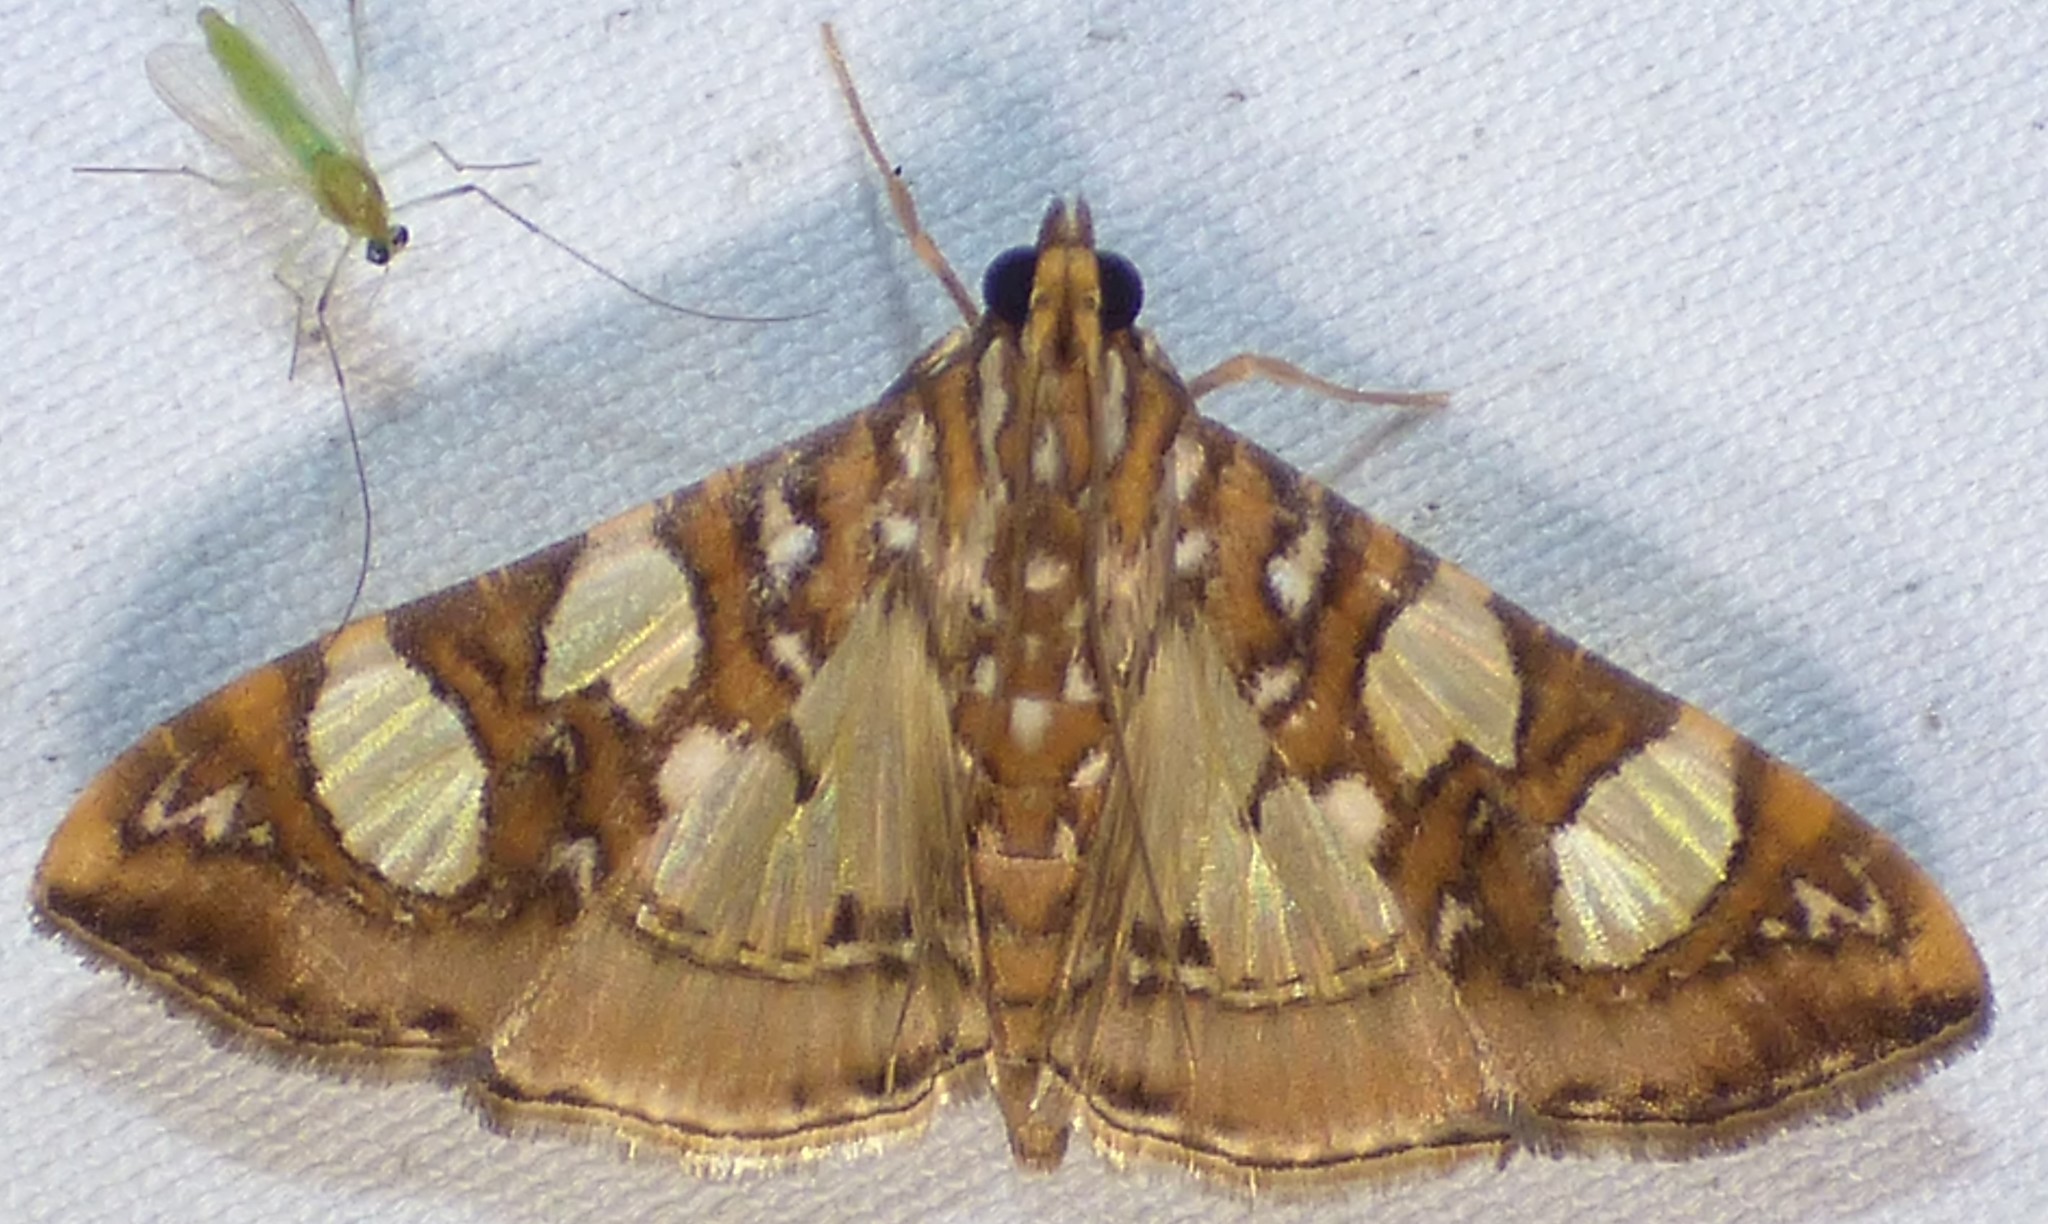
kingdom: Animalia
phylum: Arthropoda
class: Insecta
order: Lepidoptera
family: Crambidae
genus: Glyphodes
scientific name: Glyphodes sibillalis
